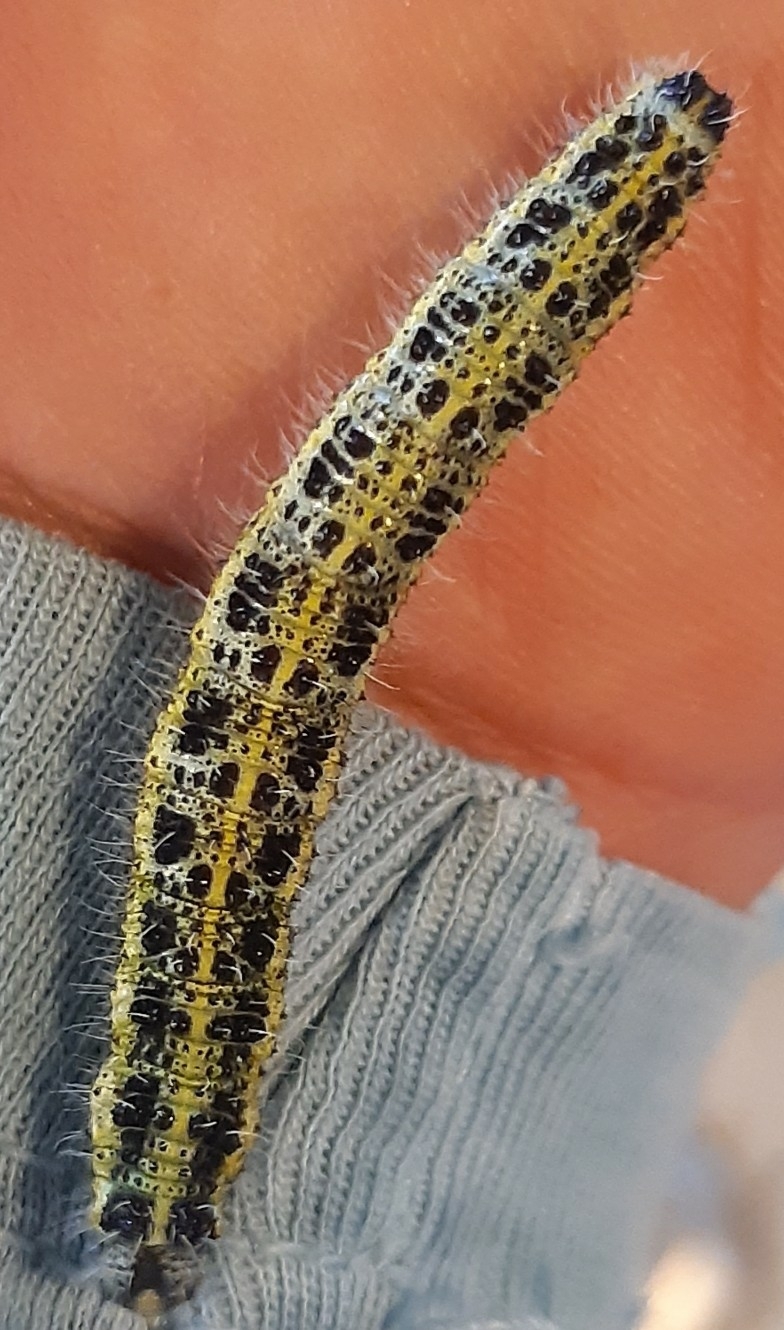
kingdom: Animalia
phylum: Arthropoda
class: Insecta
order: Lepidoptera
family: Pieridae
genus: Pieris
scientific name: Pieris brassicae
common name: Large white
